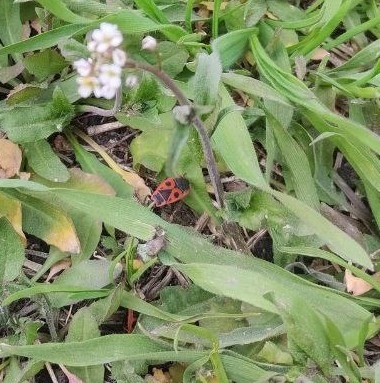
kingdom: Animalia
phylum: Arthropoda
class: Insecta
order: Hemiptera
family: Pyrrhocoridae
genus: Pyrrhocoris
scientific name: Pyrrhocoris apterus
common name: Firebug
